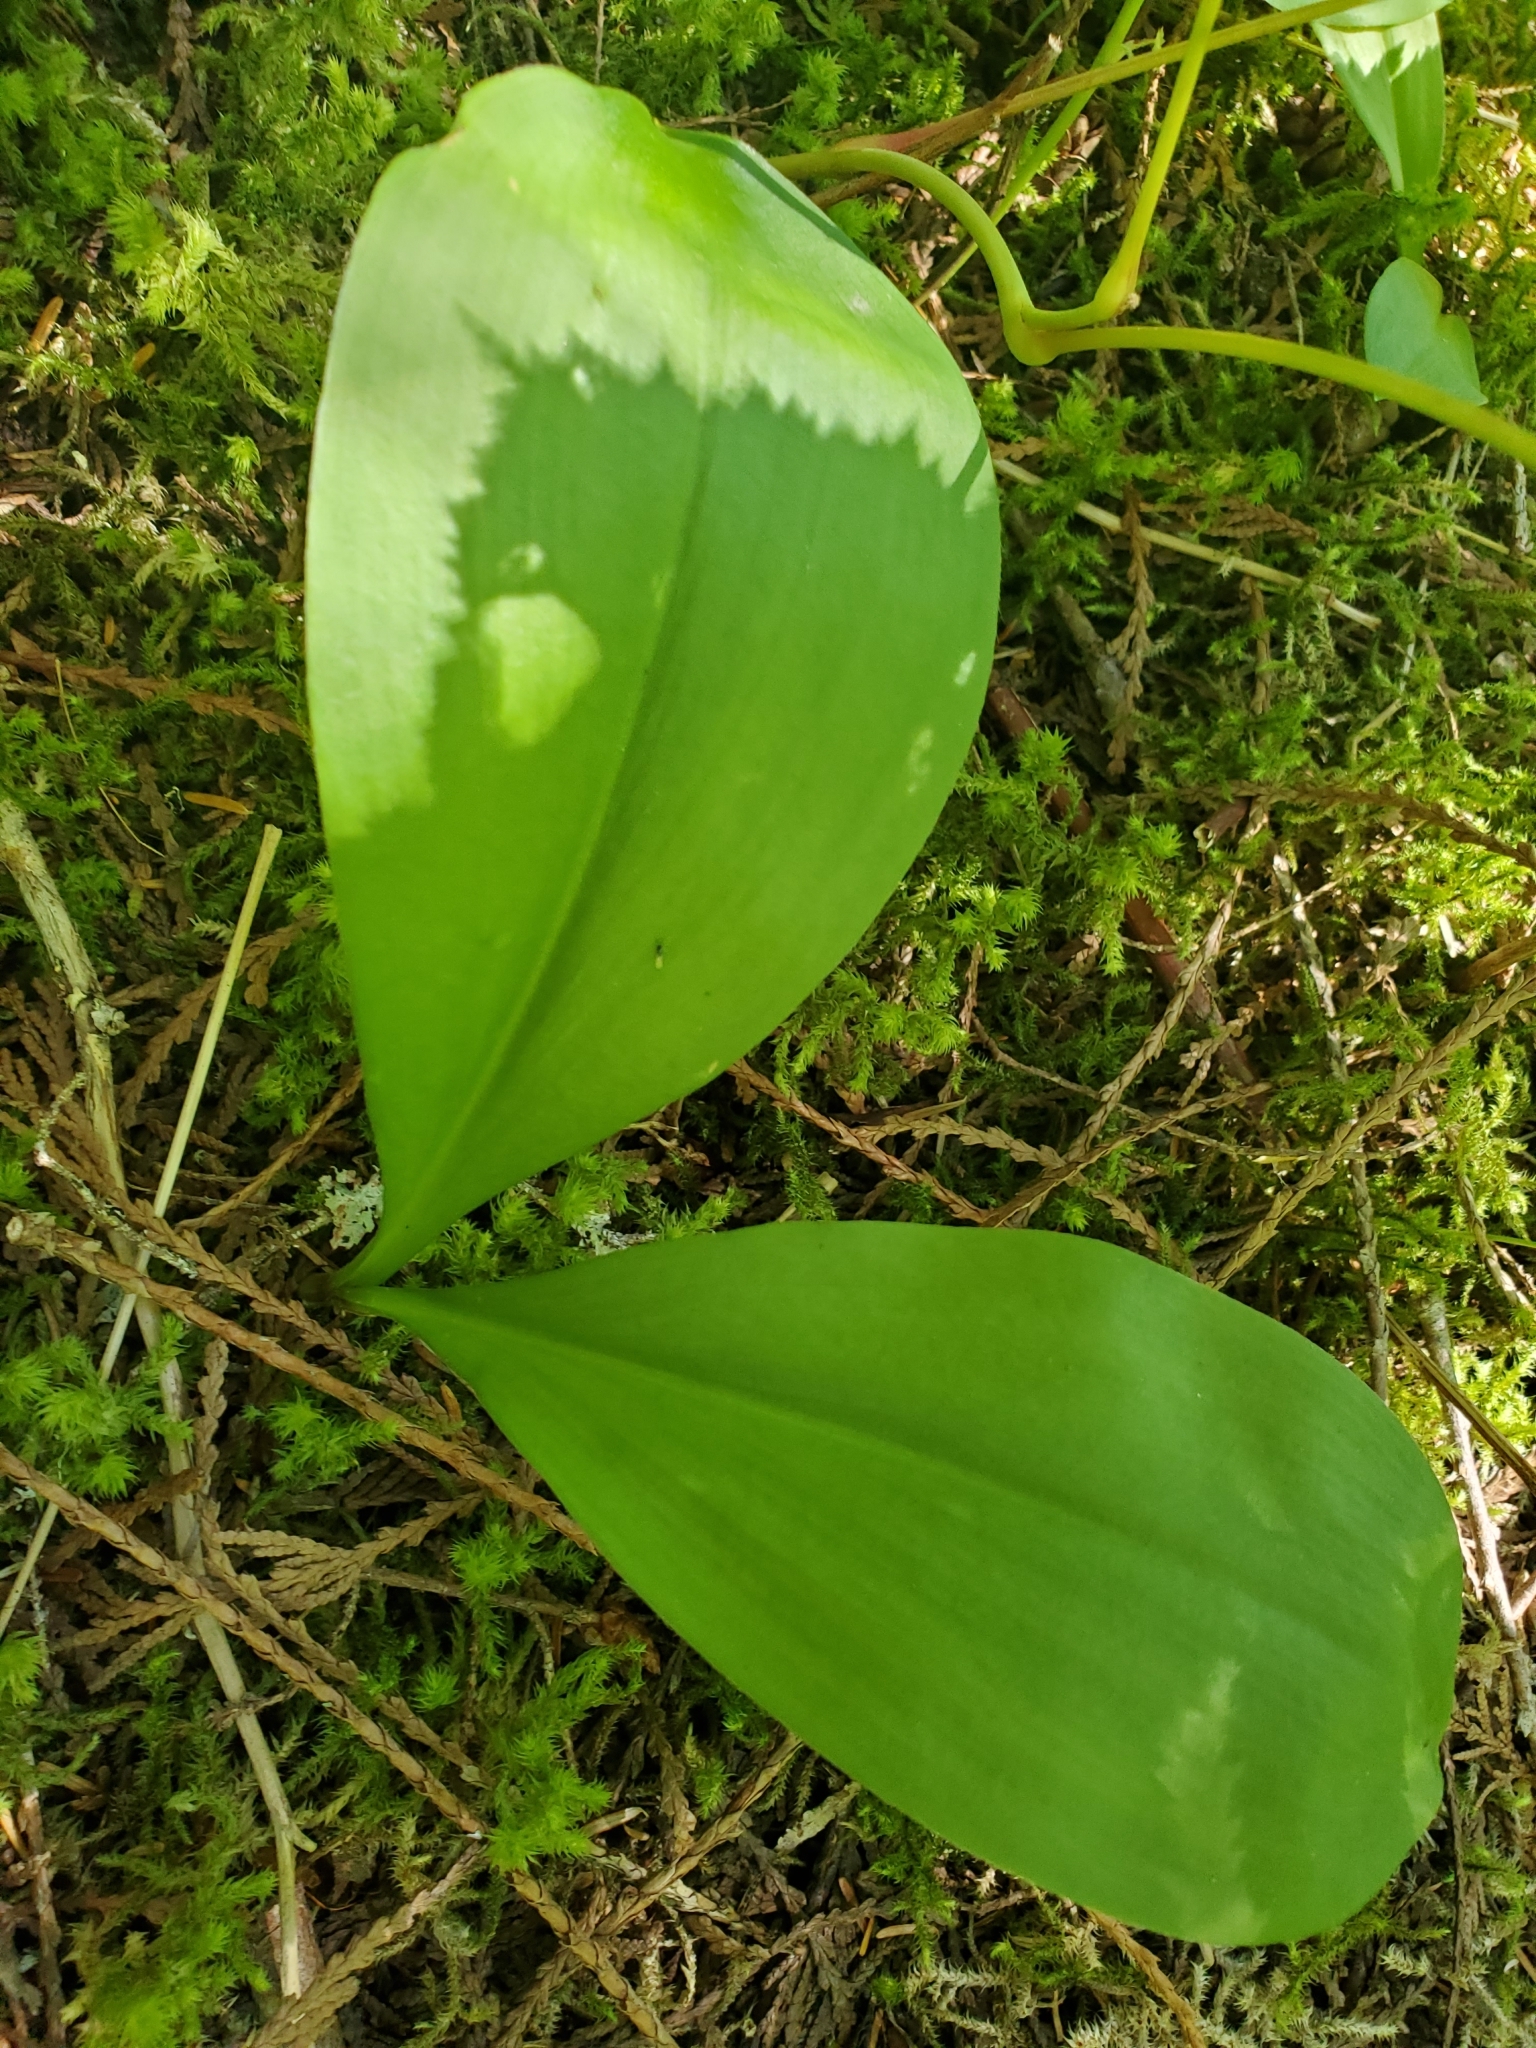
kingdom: Plantae
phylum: Tracheophyta
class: Liliopsida
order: Liliales
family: Liliaceae
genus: Clintonia
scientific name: Clintonia uniflora
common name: Queen's cup
